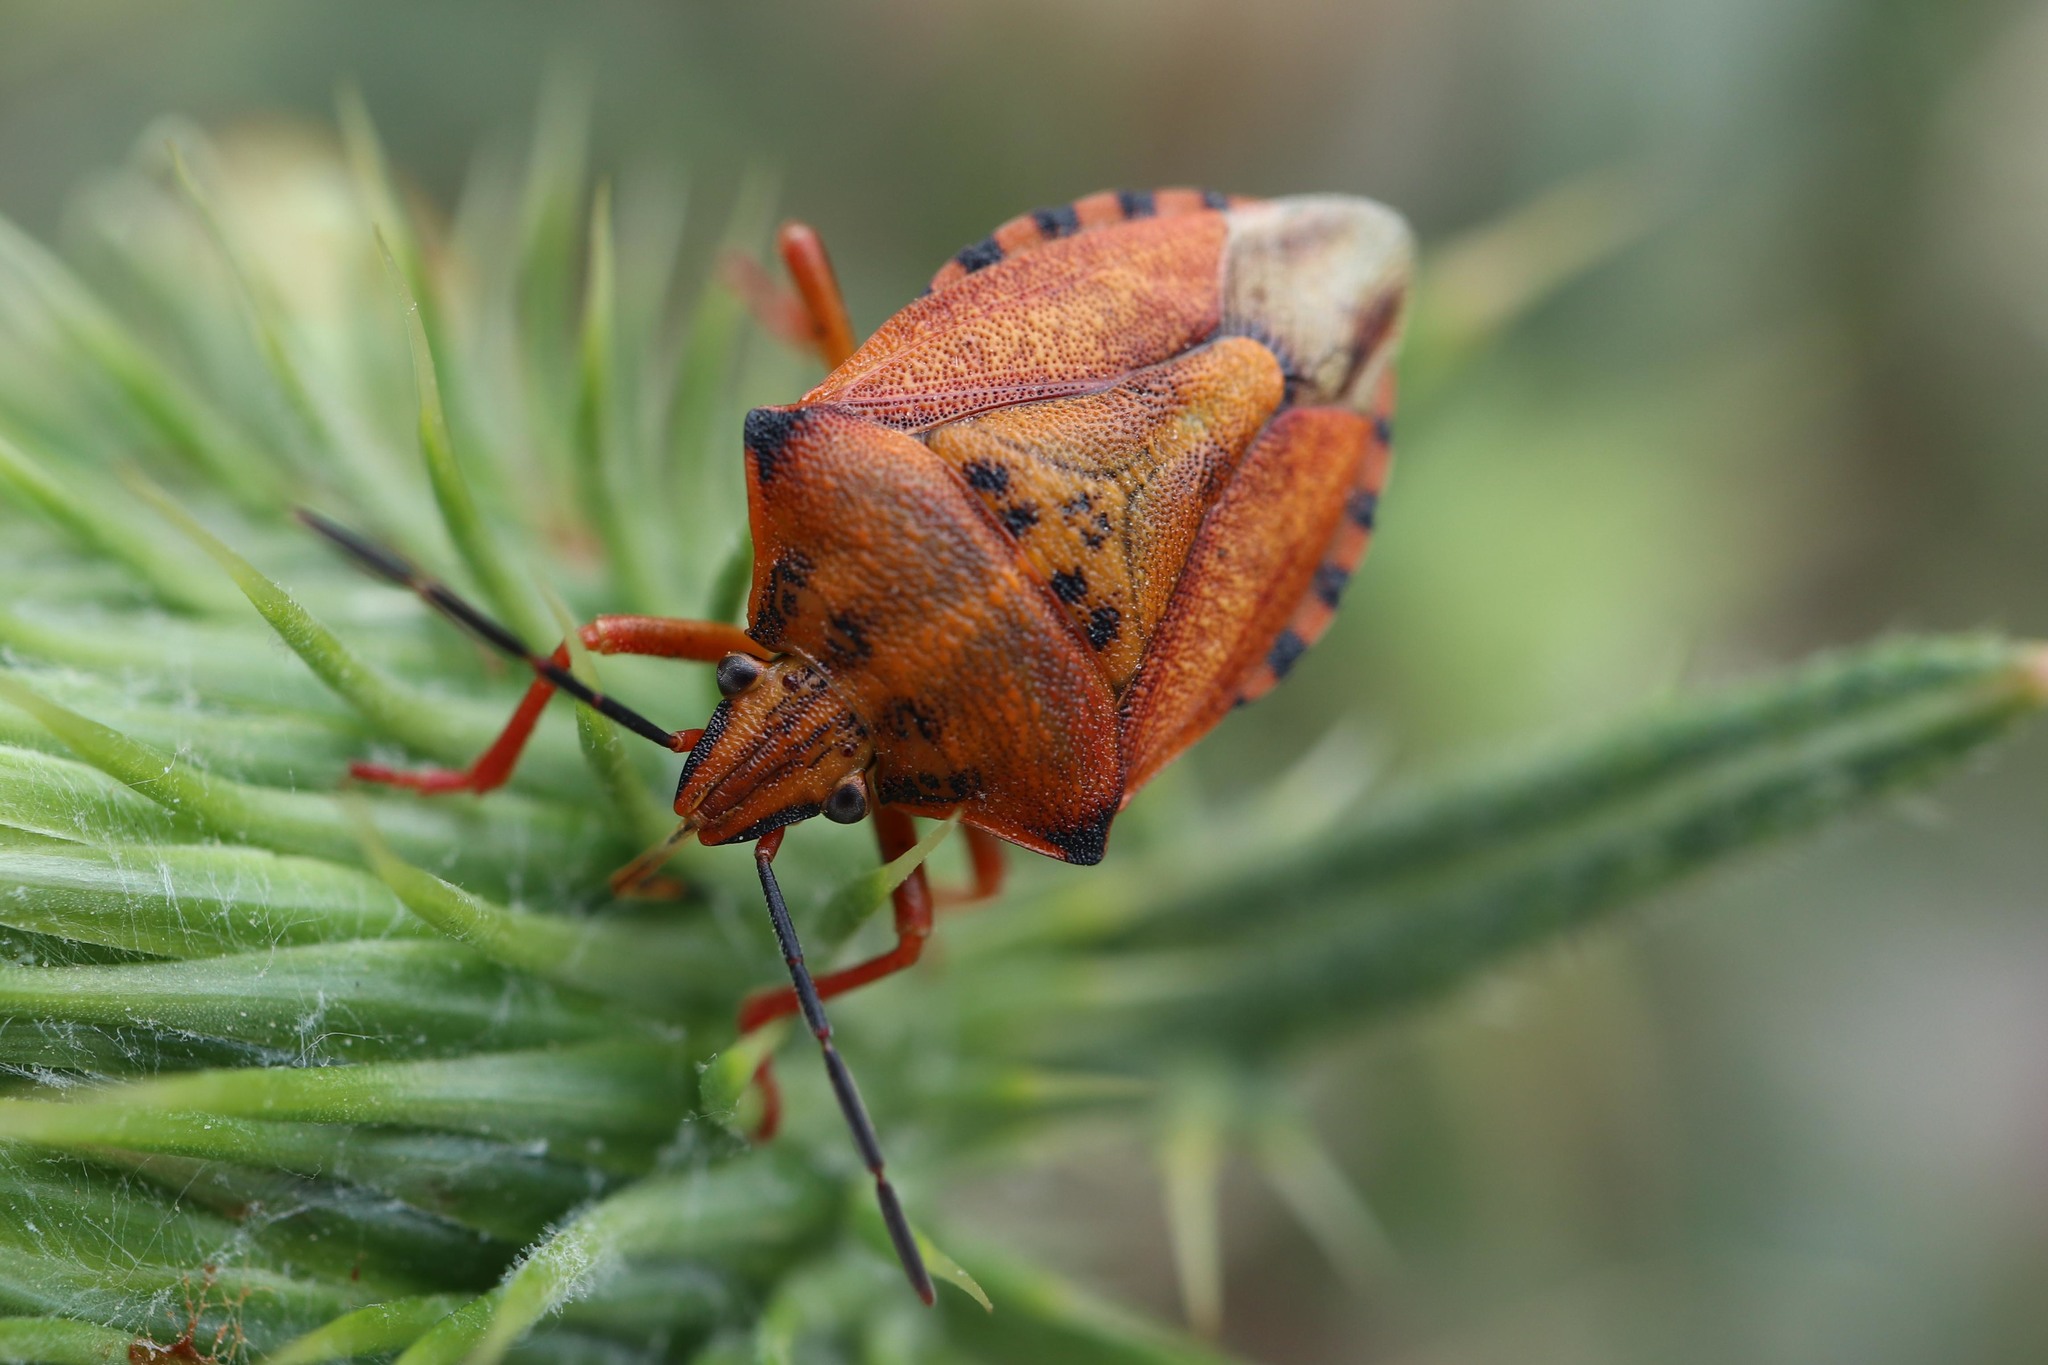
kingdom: Animalia
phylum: Arthropoda
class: Insecta
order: Hemiptera
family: Pentatomidae
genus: Carpocoris
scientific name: Carpocoris mediterraneus
